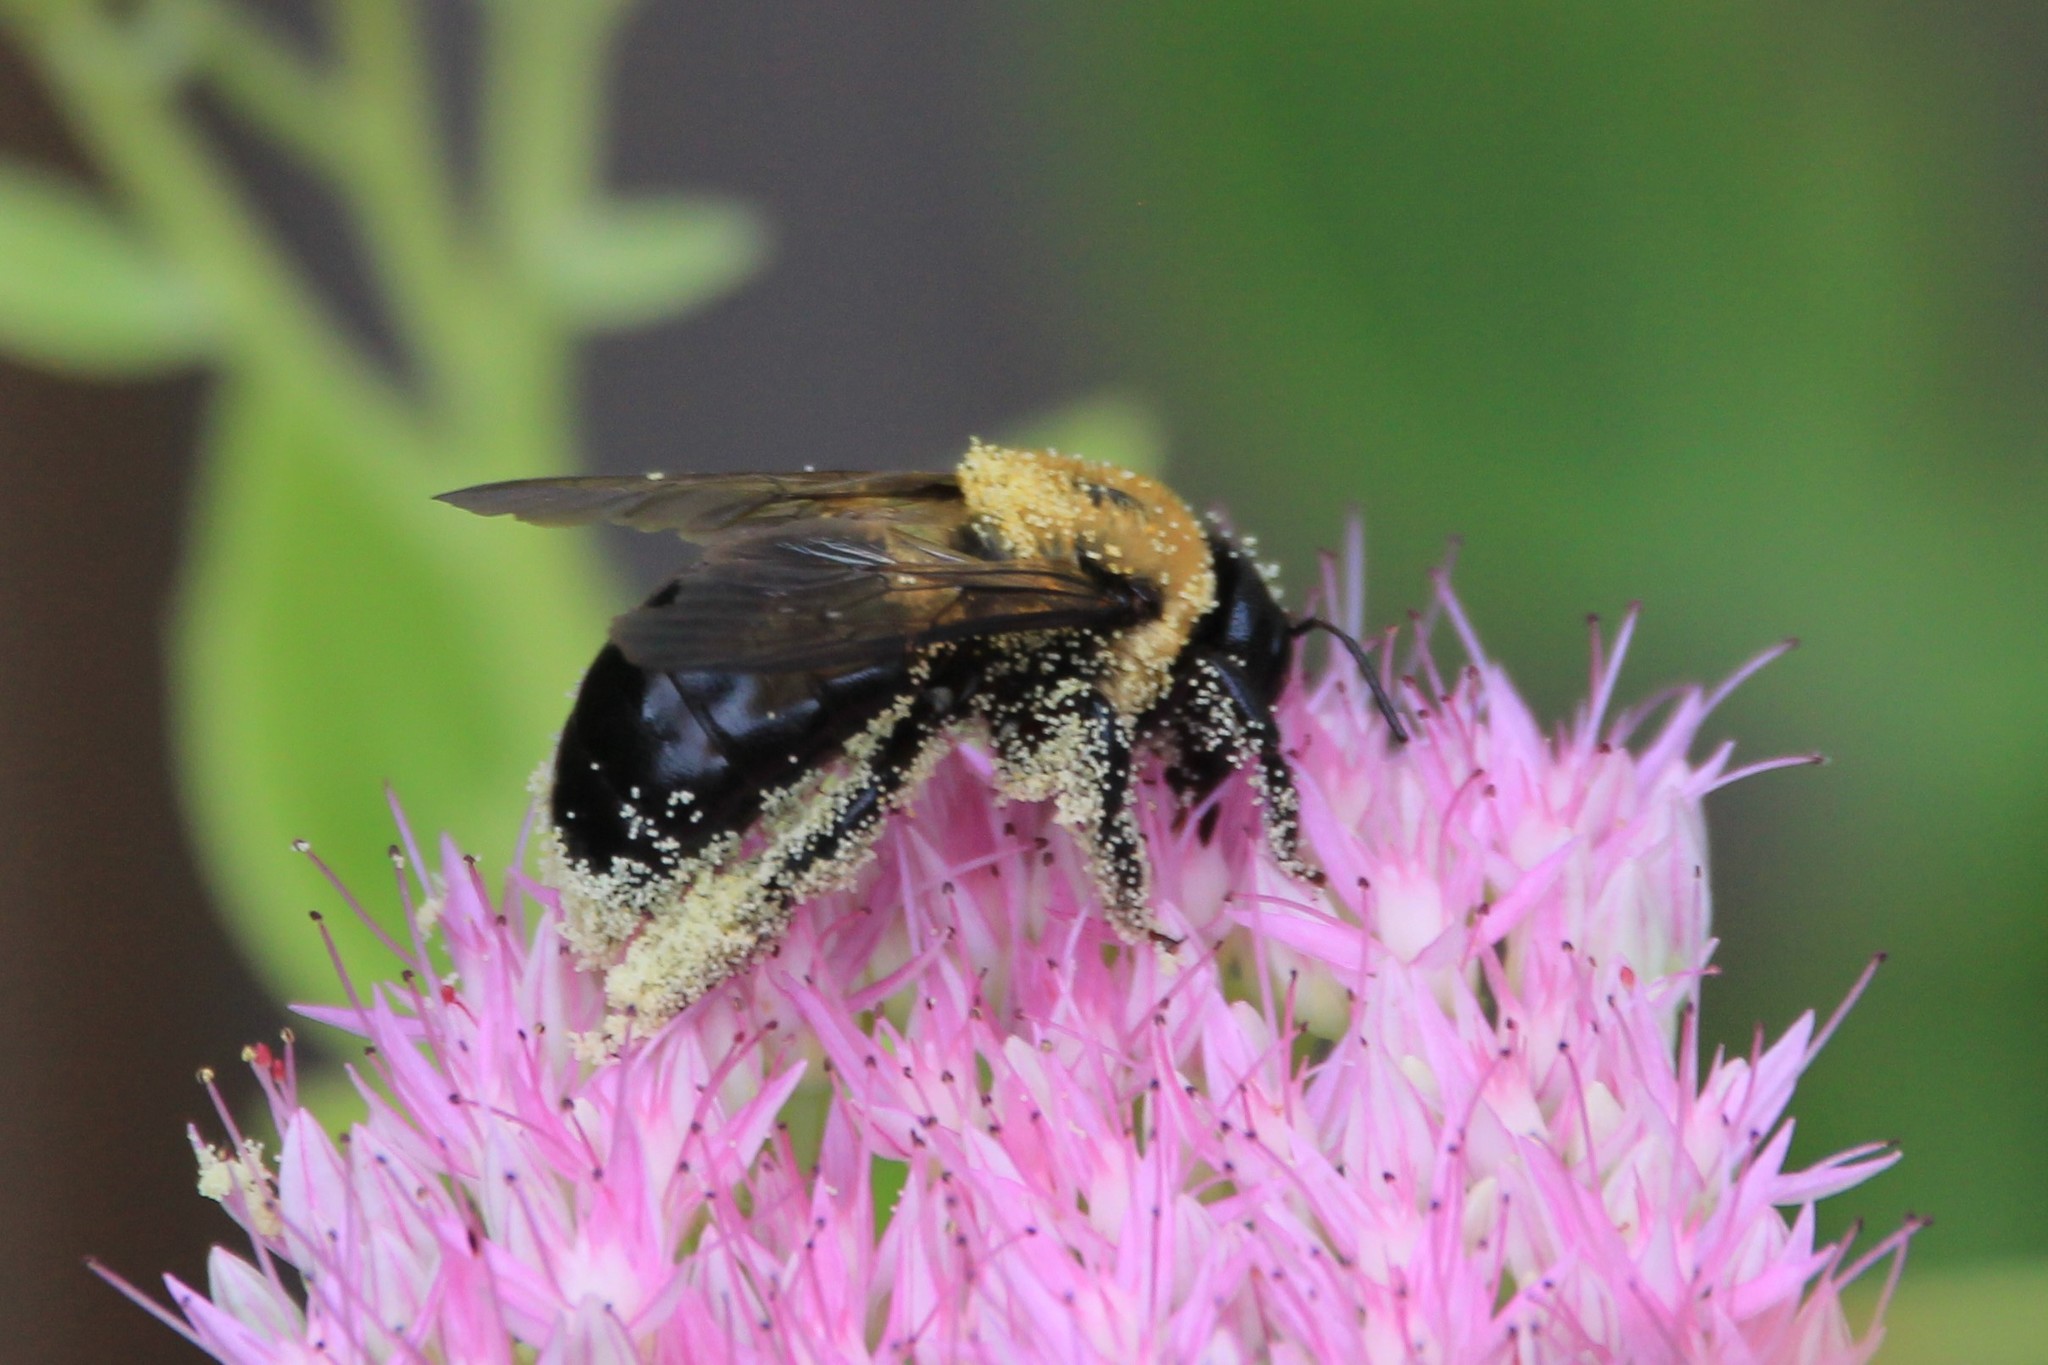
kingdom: Animalia
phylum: Arthropoda
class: Insecta
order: Hymenoptera
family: Apidae
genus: Xylocopa
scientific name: Xylocopa virginica
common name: Carpenter bee
